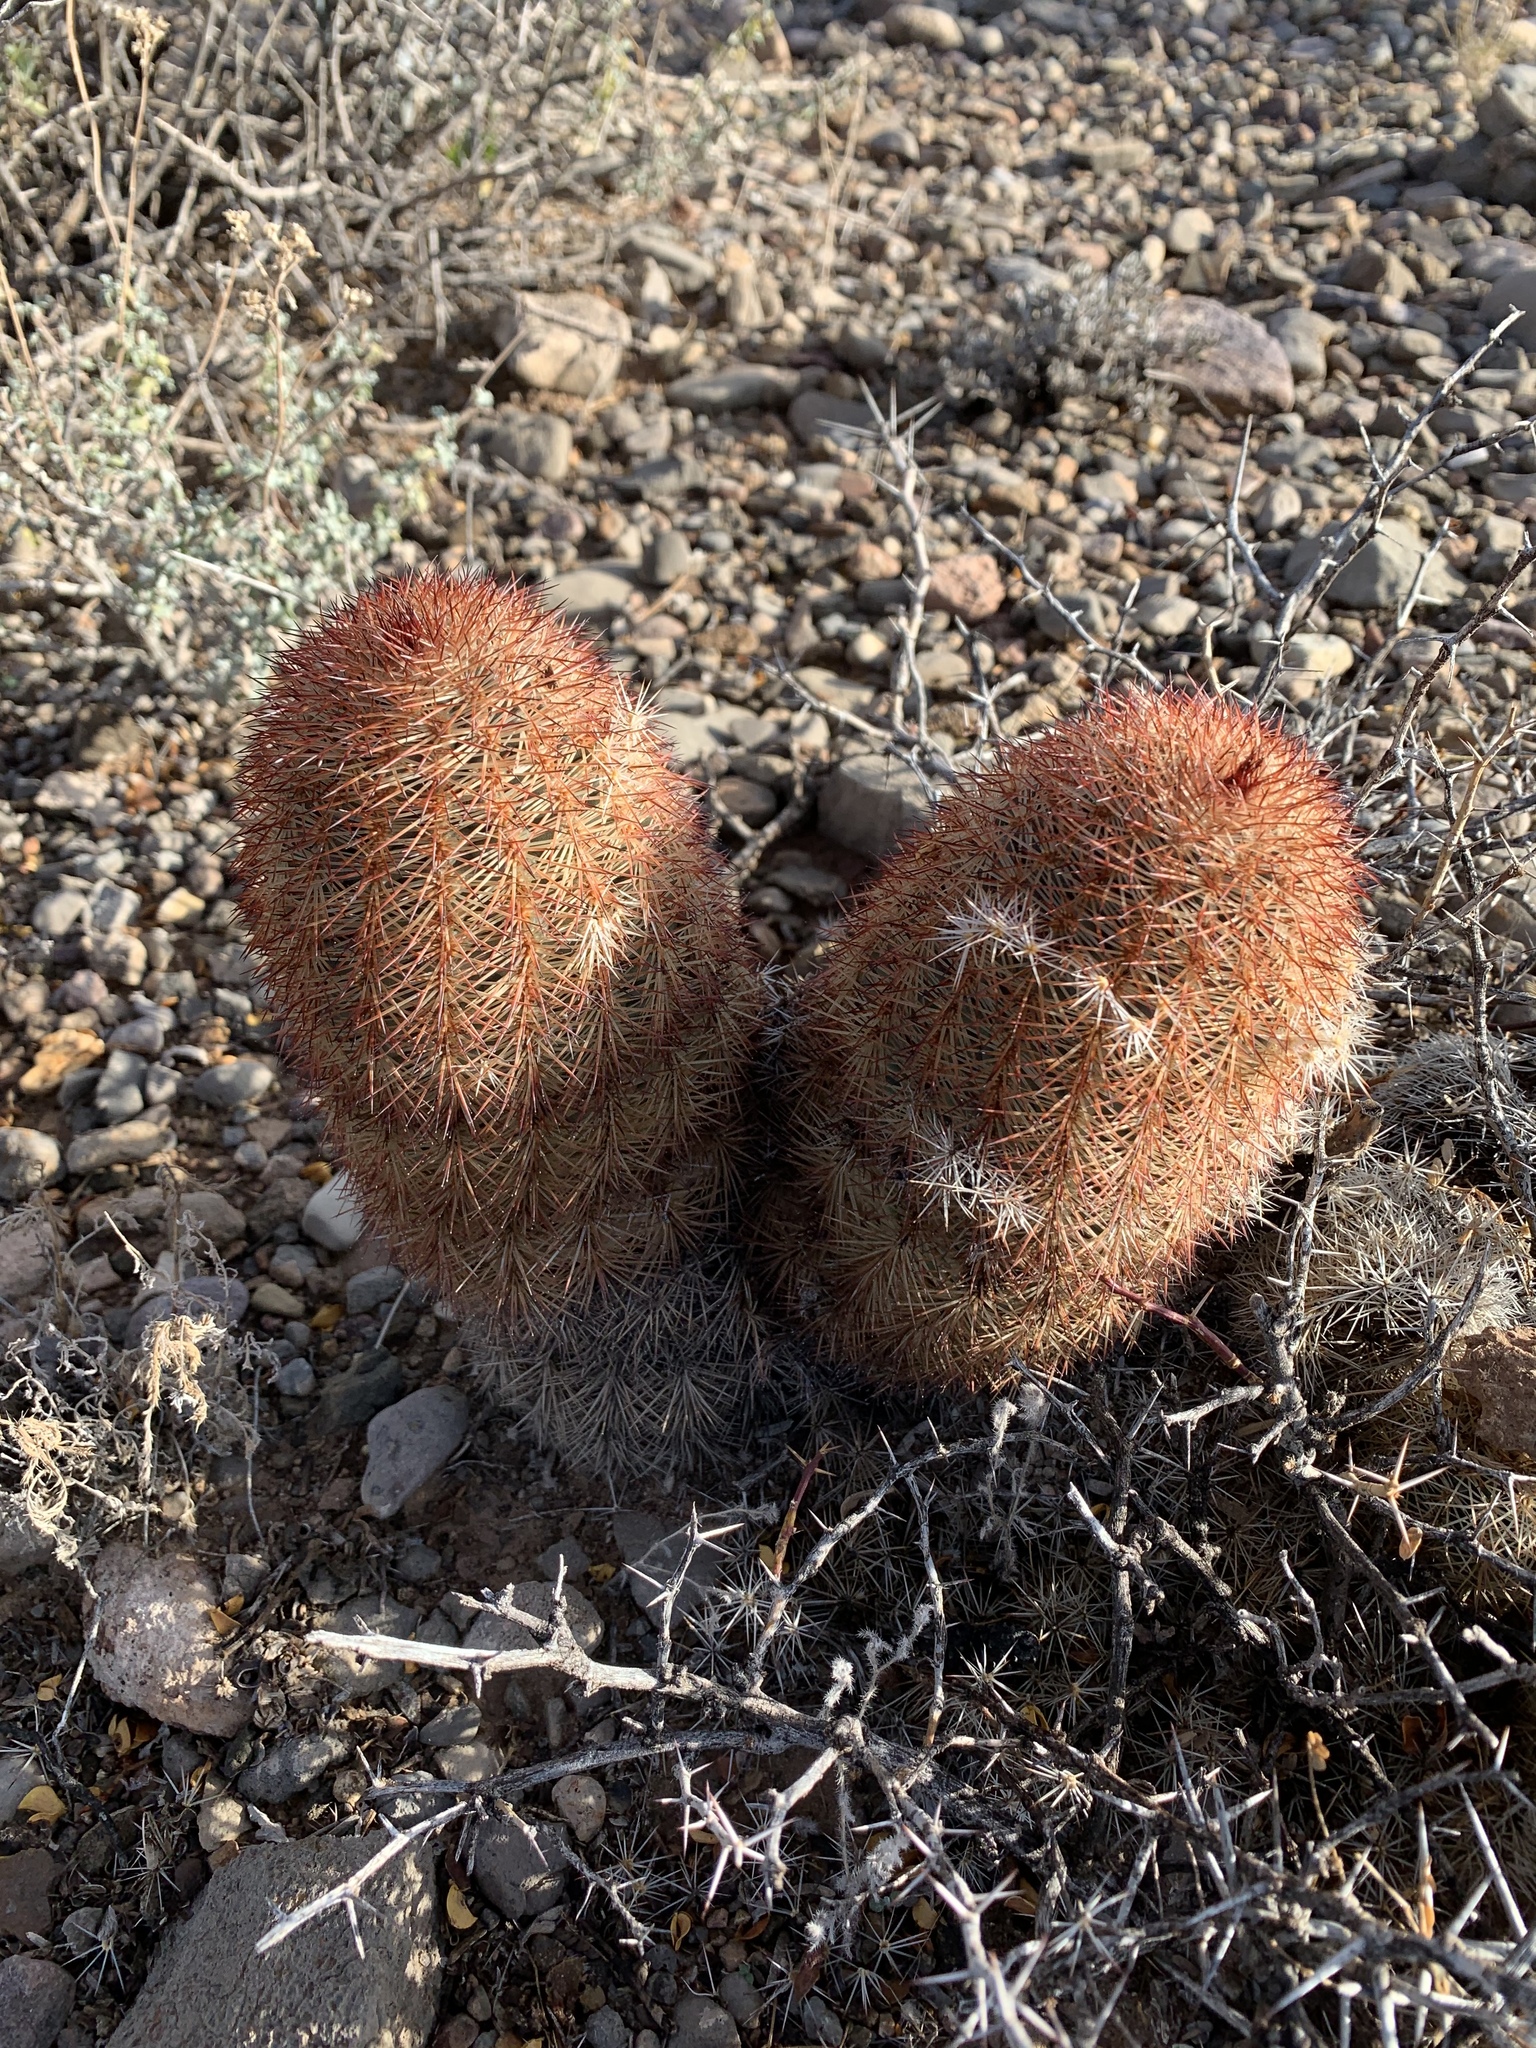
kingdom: Plantae
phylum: Tracheophyta
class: Magnoliopsida
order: Caryophyllales
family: Cactaceae
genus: Echinocereus
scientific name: Echinocereus dasyacanthus
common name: Spiny hedgehog cactus
